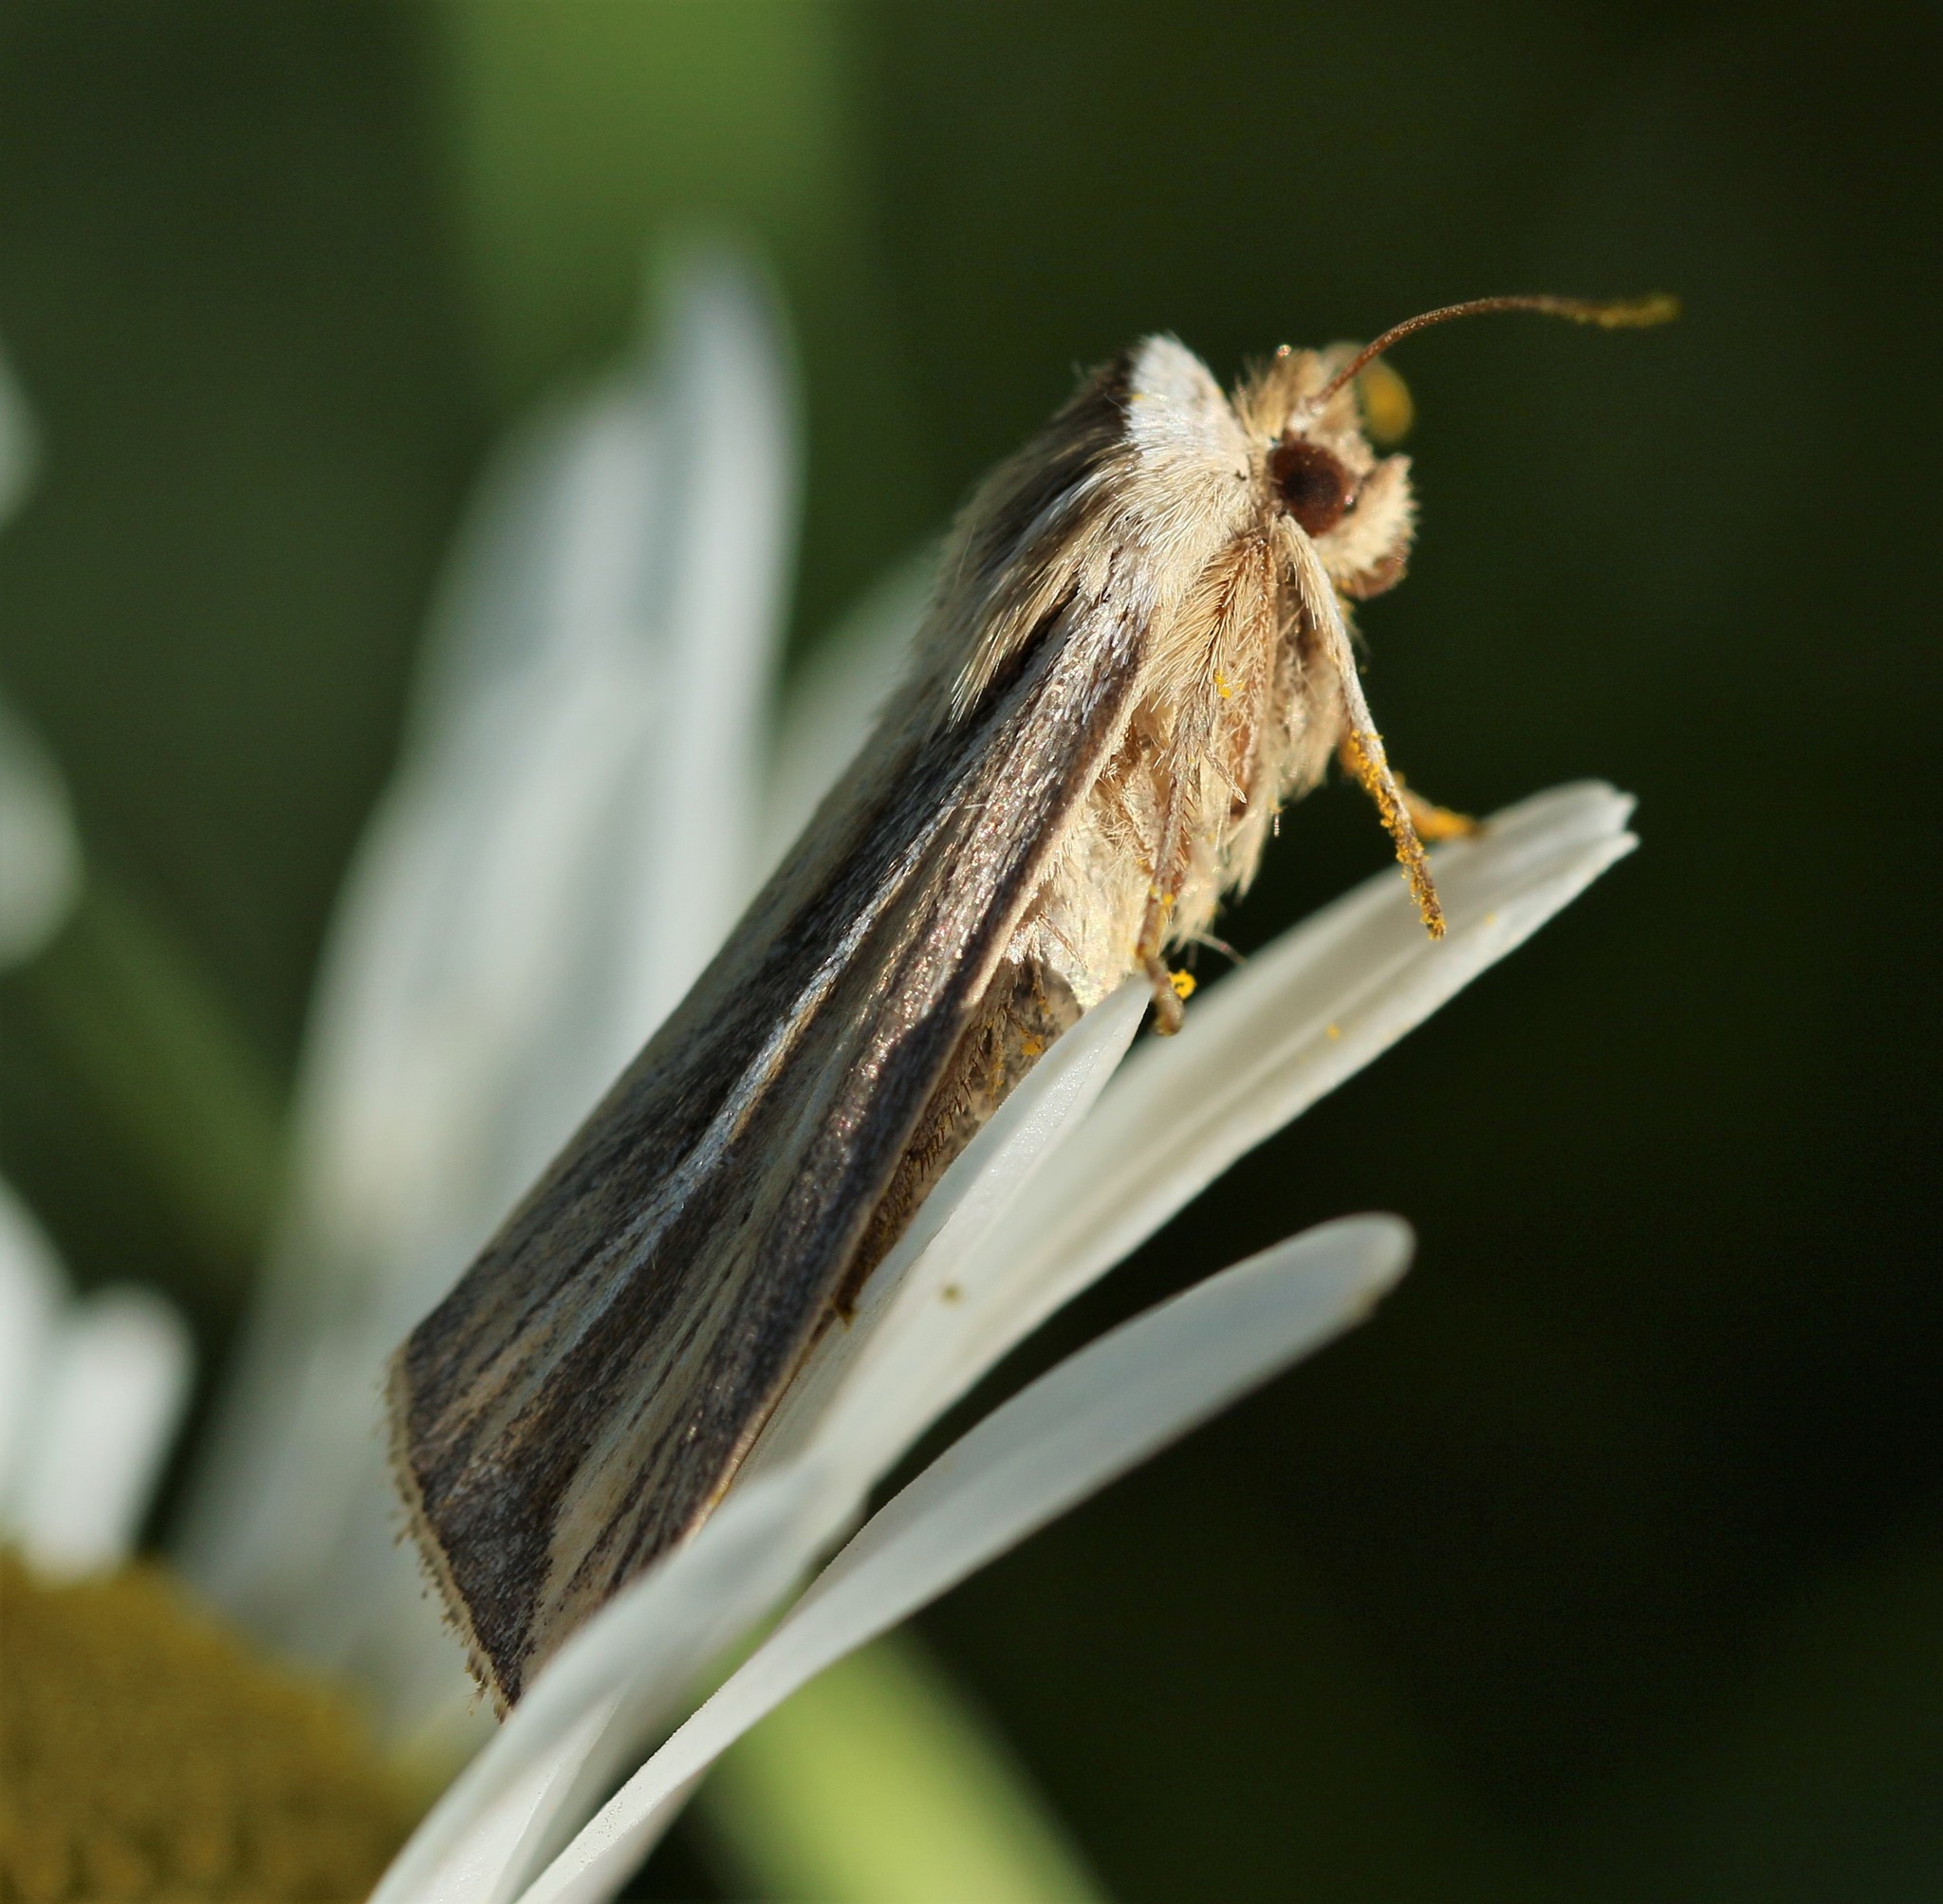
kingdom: Animalia
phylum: Arthropoda
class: Insecta
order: Lepidoptera
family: Noctuidae
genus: Dargida
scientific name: Dargida diffusa
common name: Wheat head armyworm
